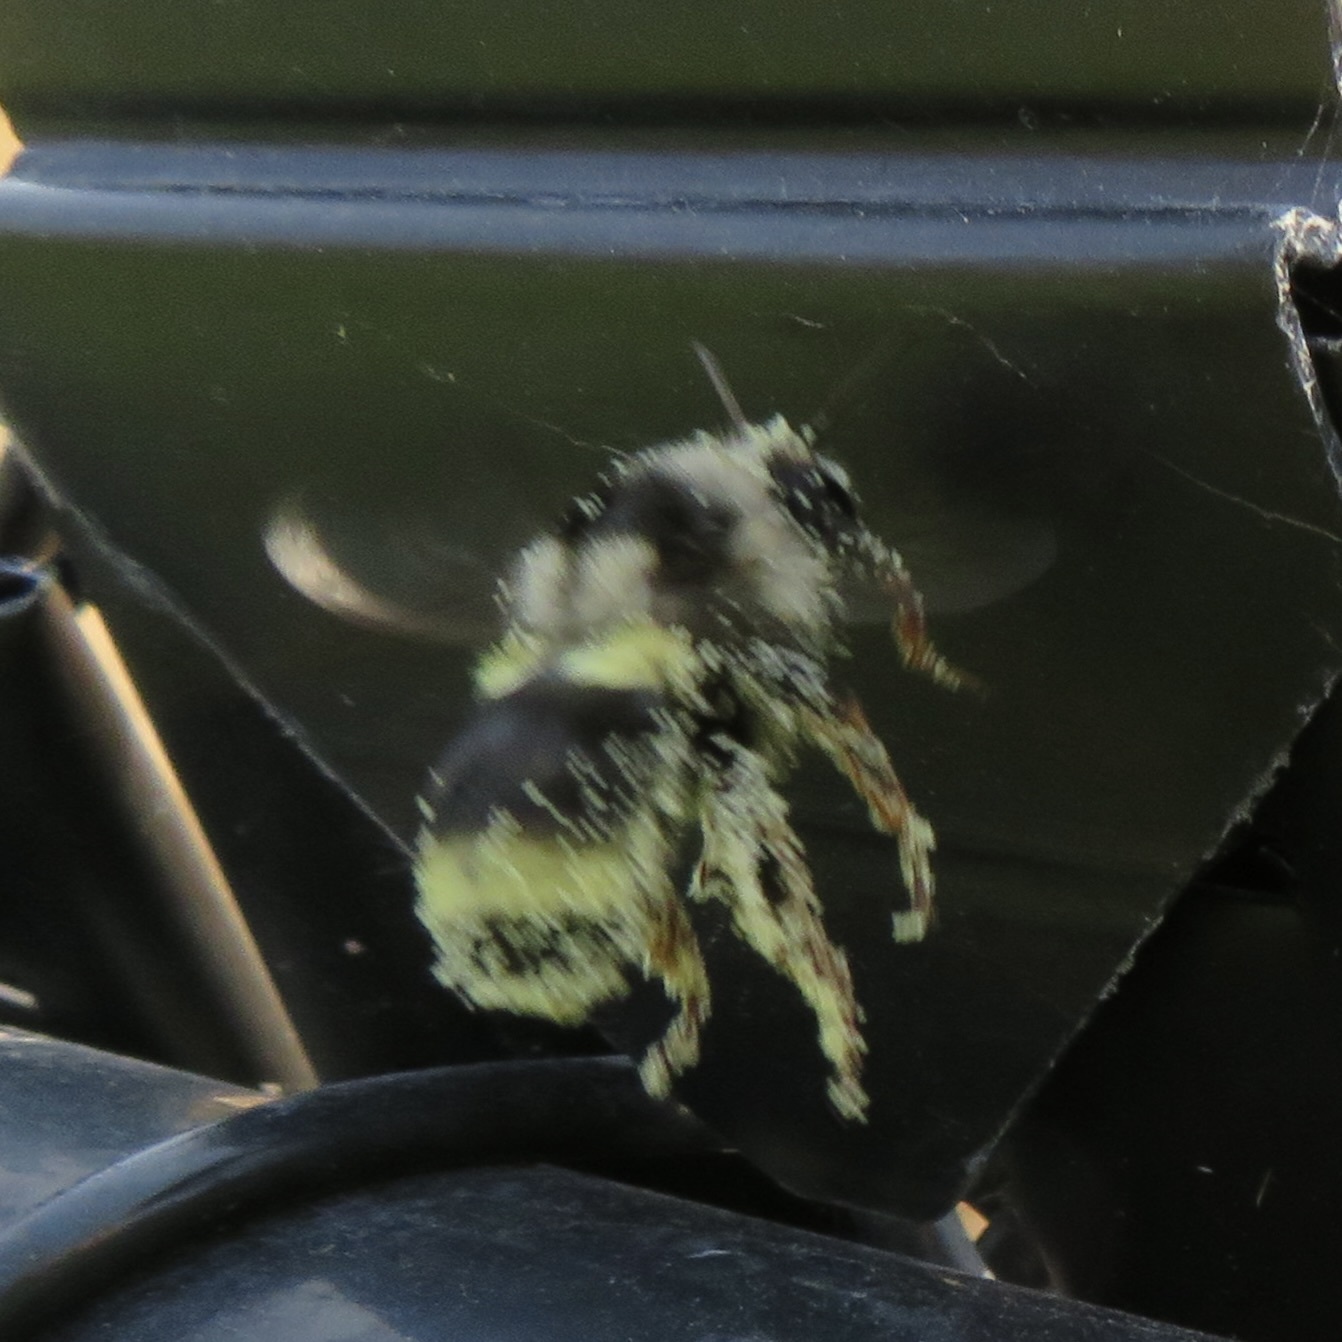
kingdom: Animalia
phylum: Arthropoda
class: Insecta
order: Hymenoptera
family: Apidae
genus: Bombus
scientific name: Bombus vancouverensis
